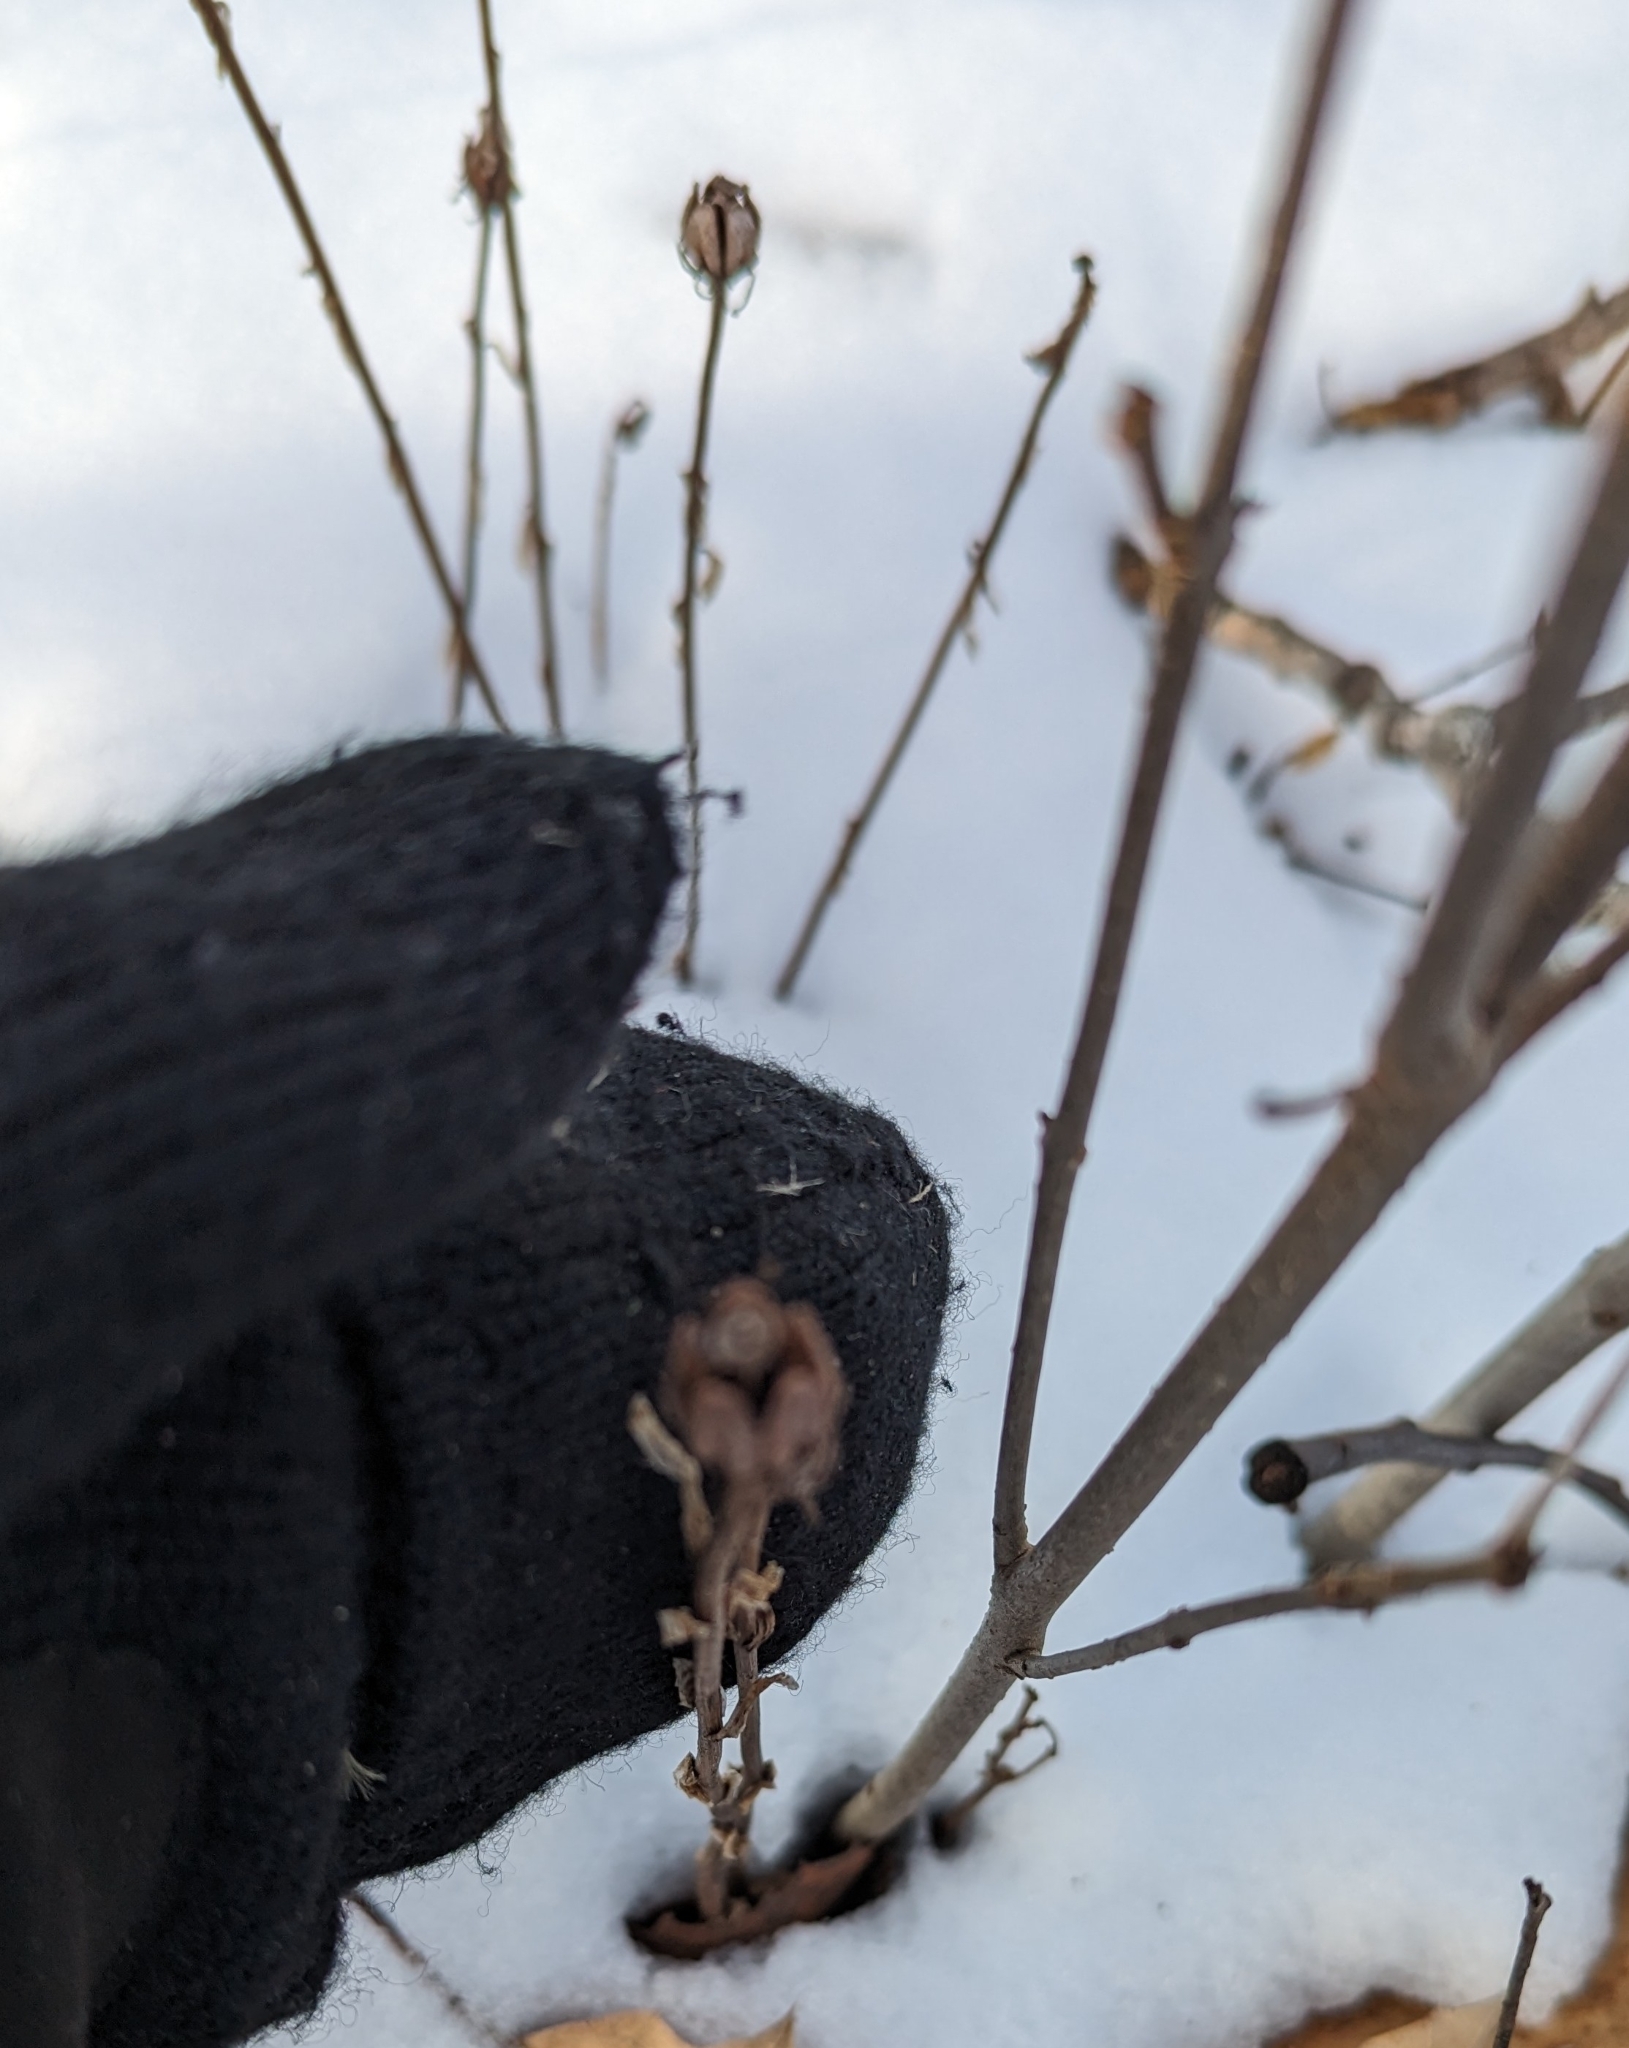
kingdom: Plantae
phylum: Tracheophyta
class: Magnoliopsida
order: Ericales
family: Ericaceae
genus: Monotropa
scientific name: Monotropa uniflora
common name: Convulsion root
